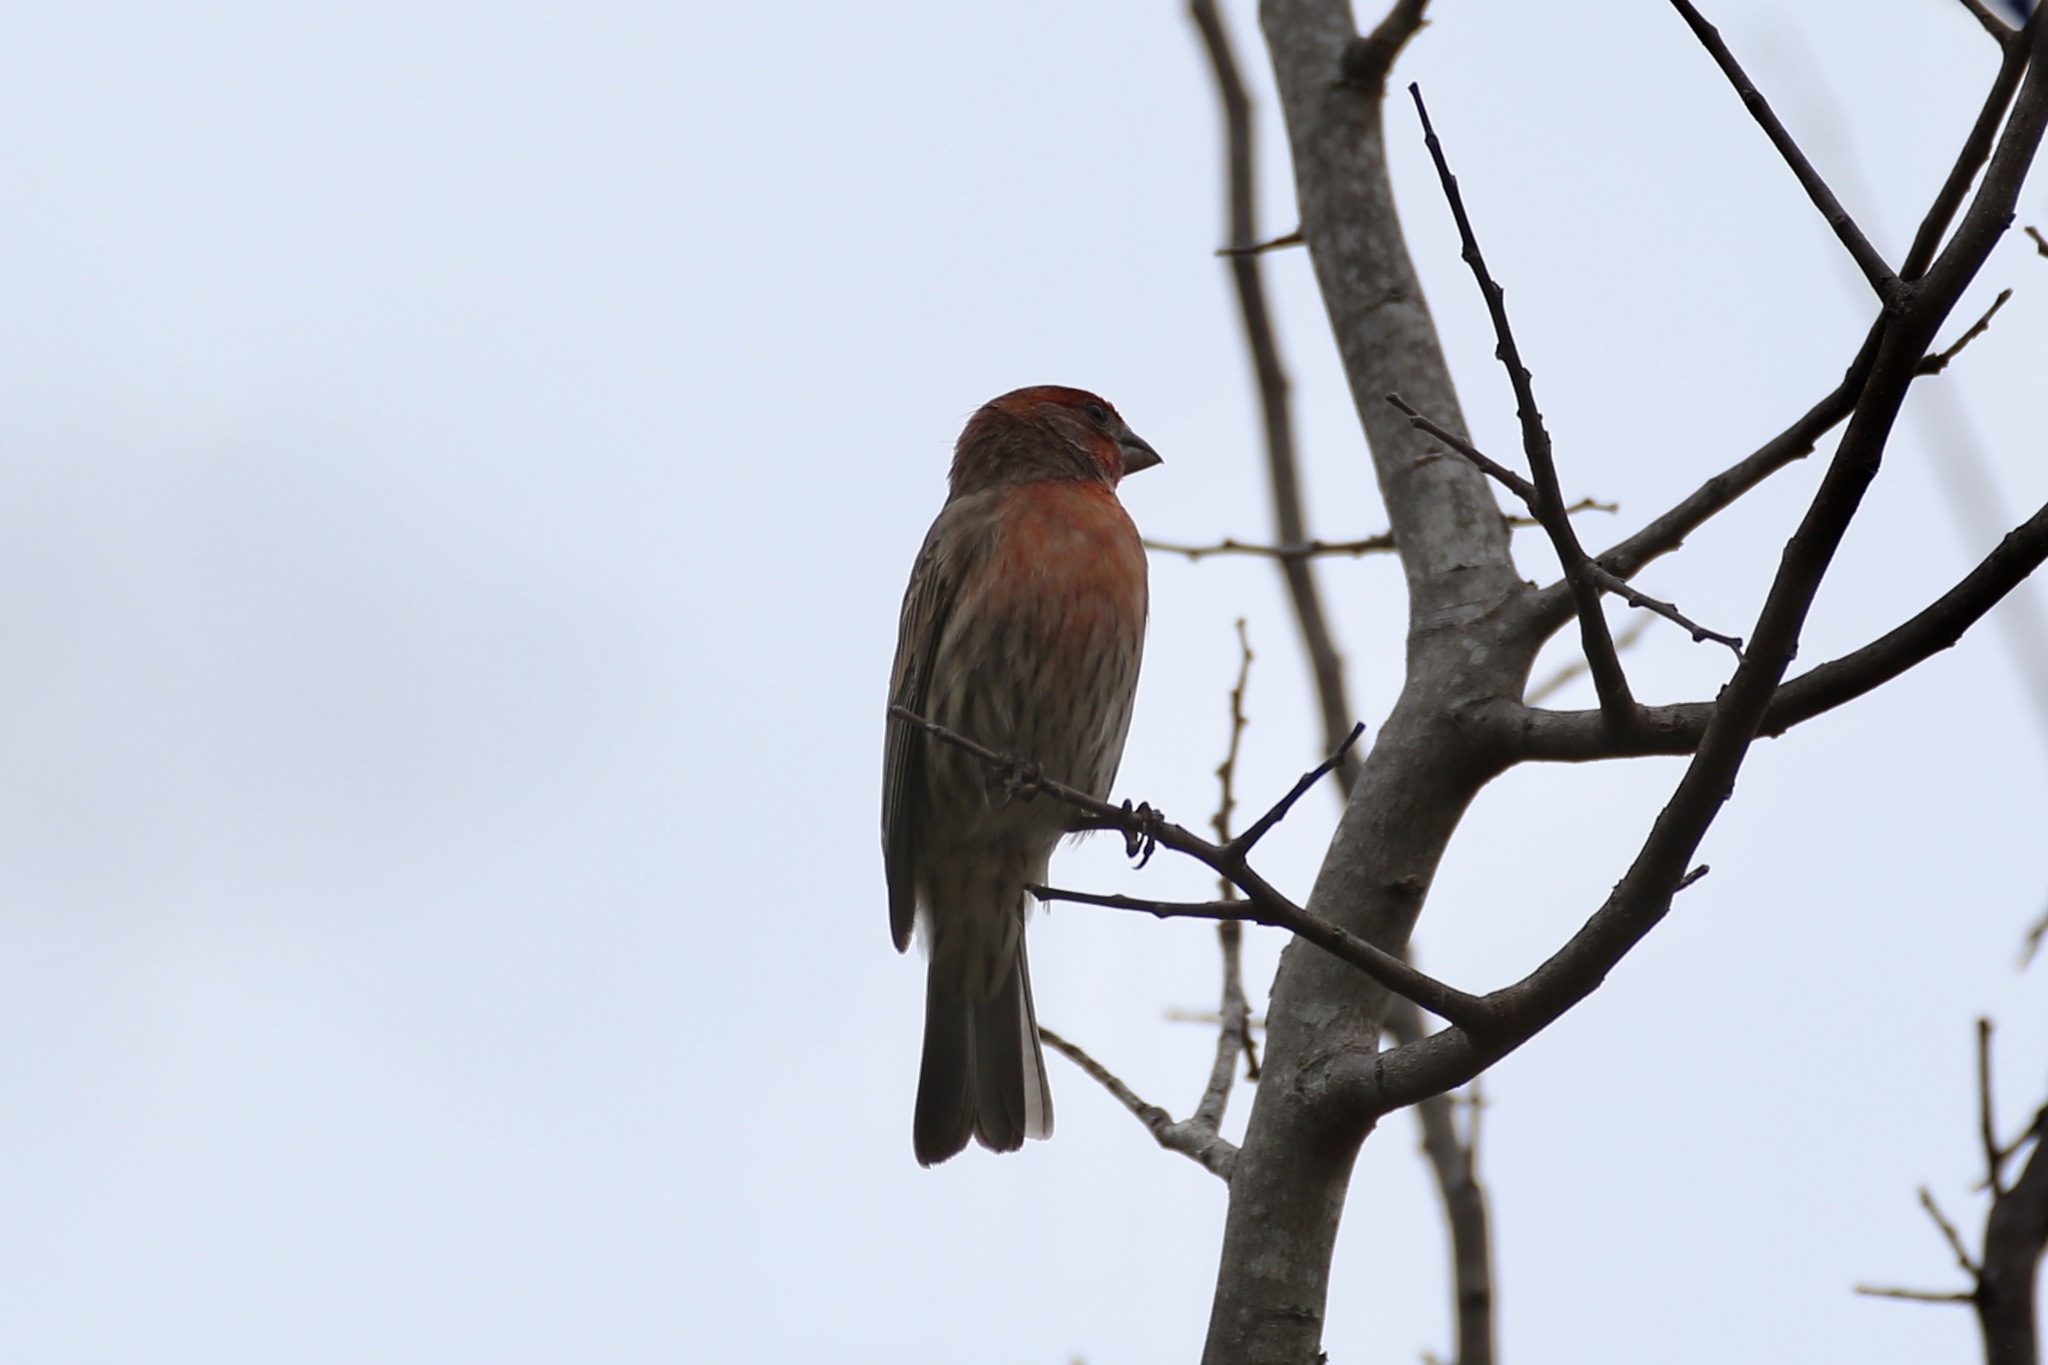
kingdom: Animalia
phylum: Chordata
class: Aves
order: Passeriformes
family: Fringillidae
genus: Haemorhous
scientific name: Haemorhous mexicanus
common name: House finch
